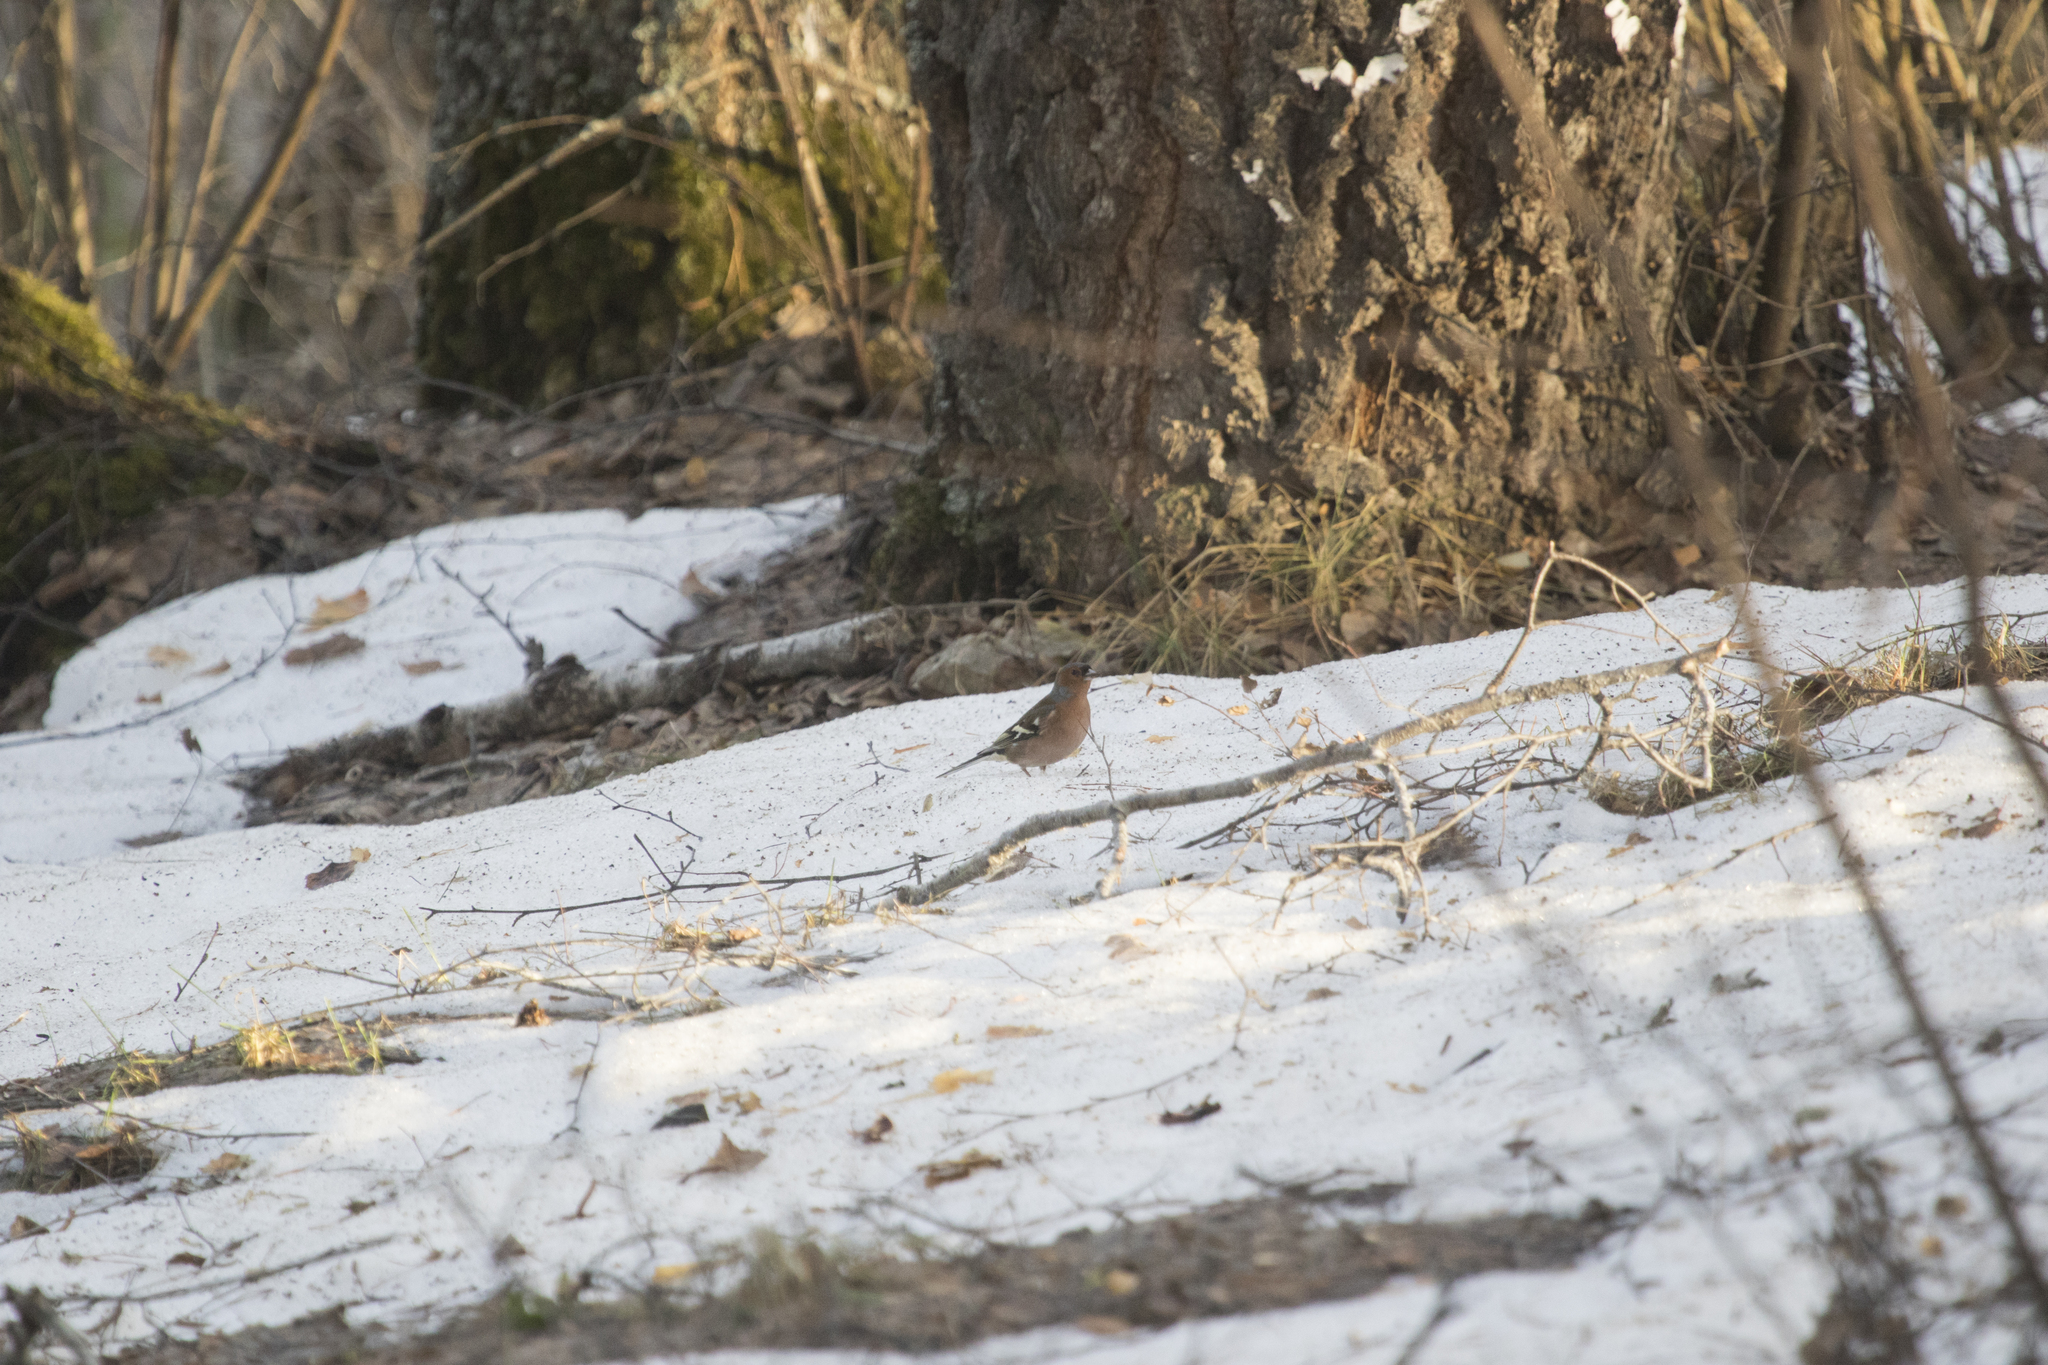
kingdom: Animalia
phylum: Chordata
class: Aves
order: Passeriformes
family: Fringillidae
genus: Fringilla
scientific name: Fringilla coelebs
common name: Common chaffinch
